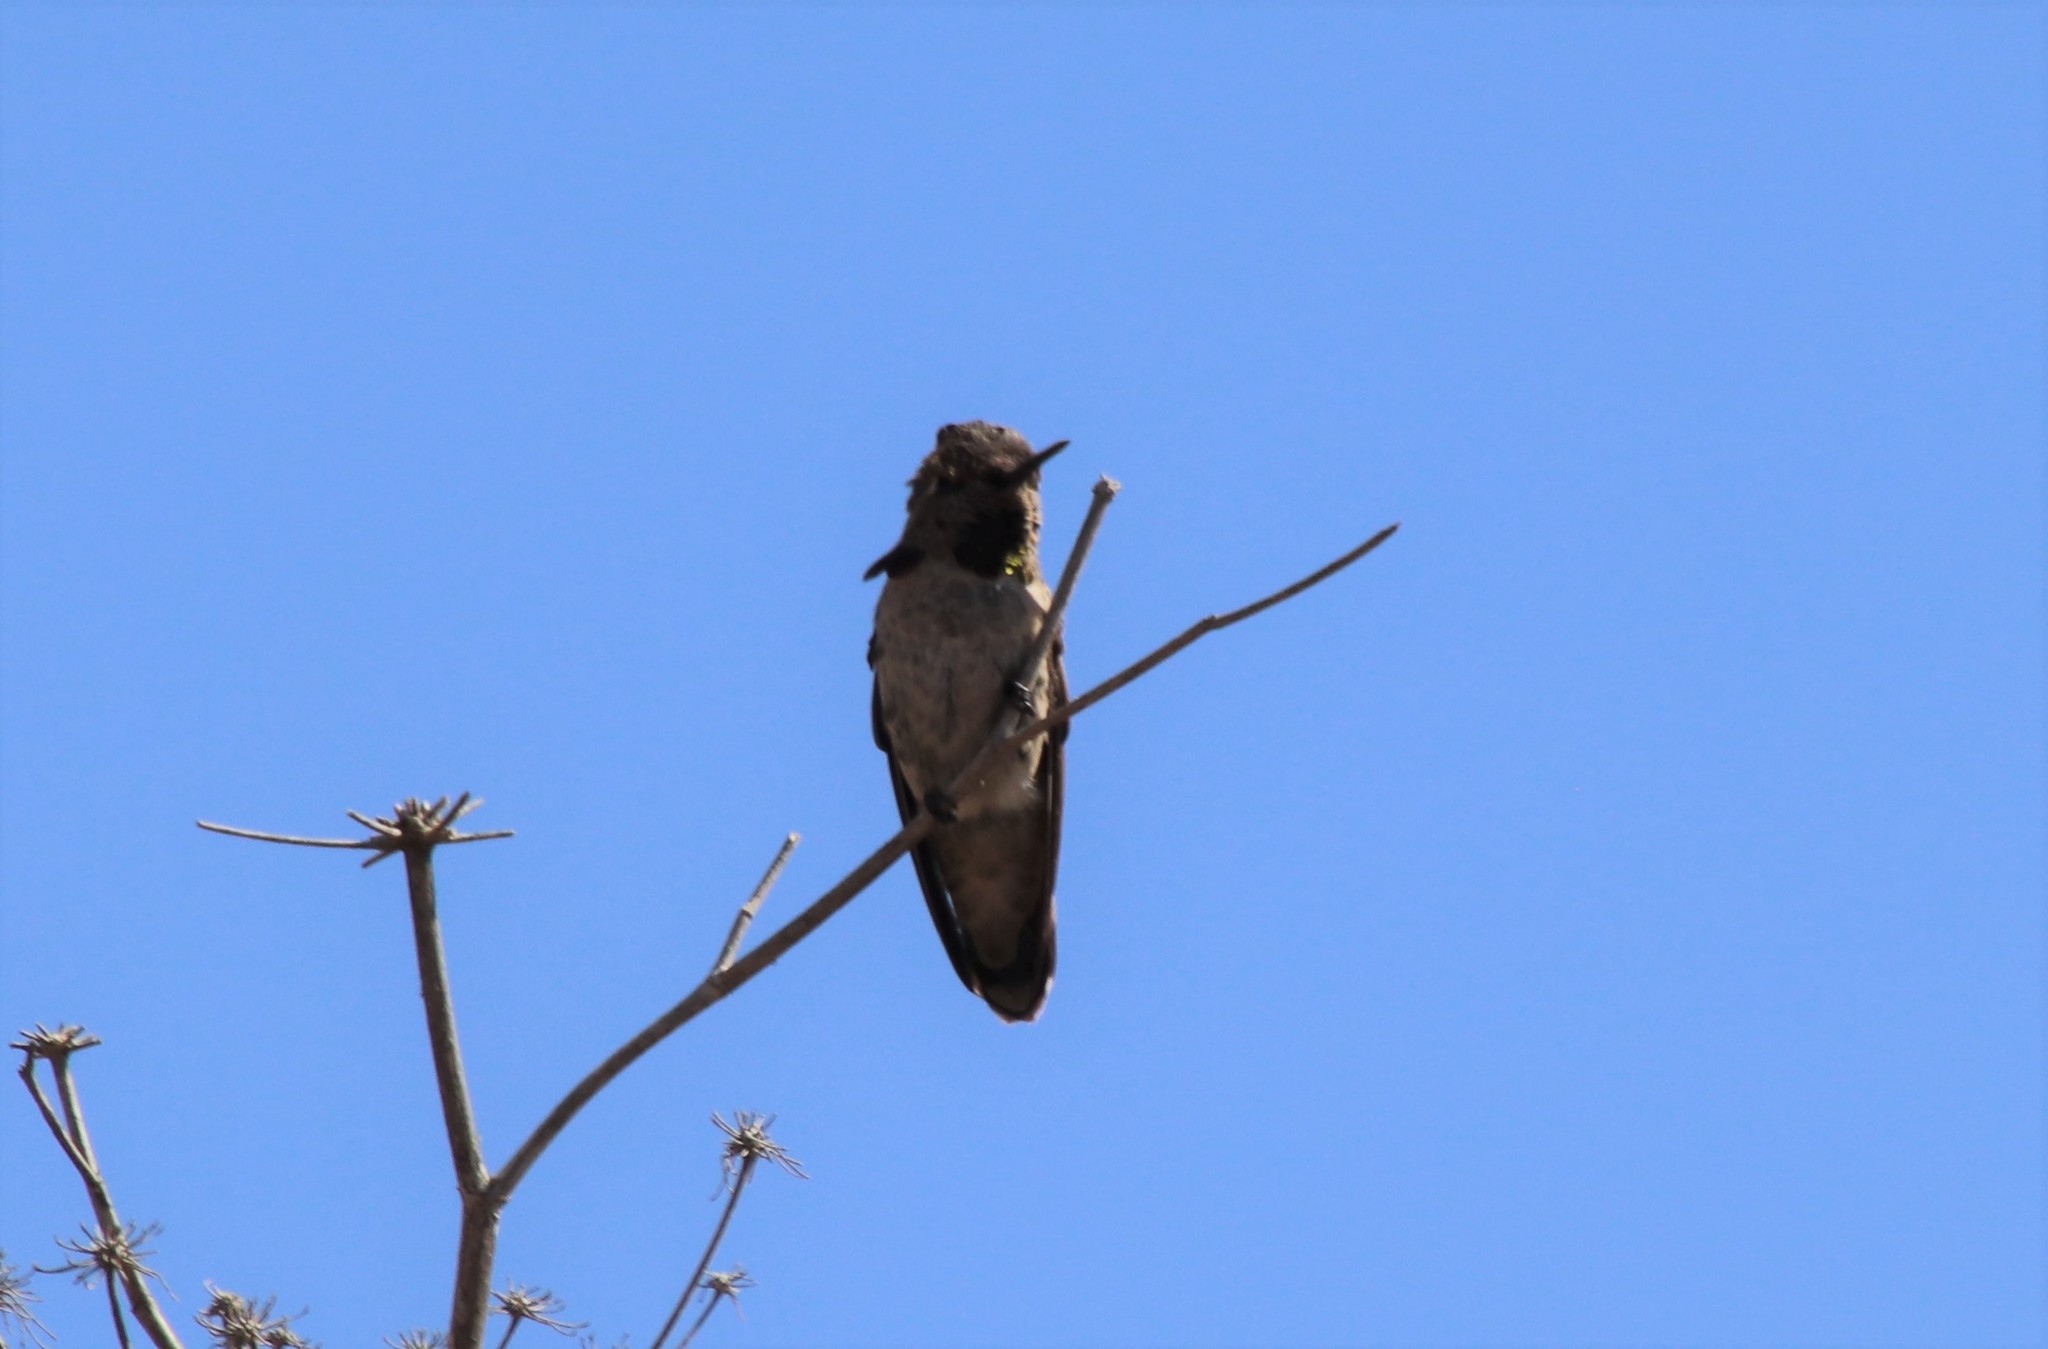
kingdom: Animalia
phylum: Chordata
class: Aves
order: Apodiformes
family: Trochilidae
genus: Calypte
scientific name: Calypte anna
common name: Anna's hummingbird
